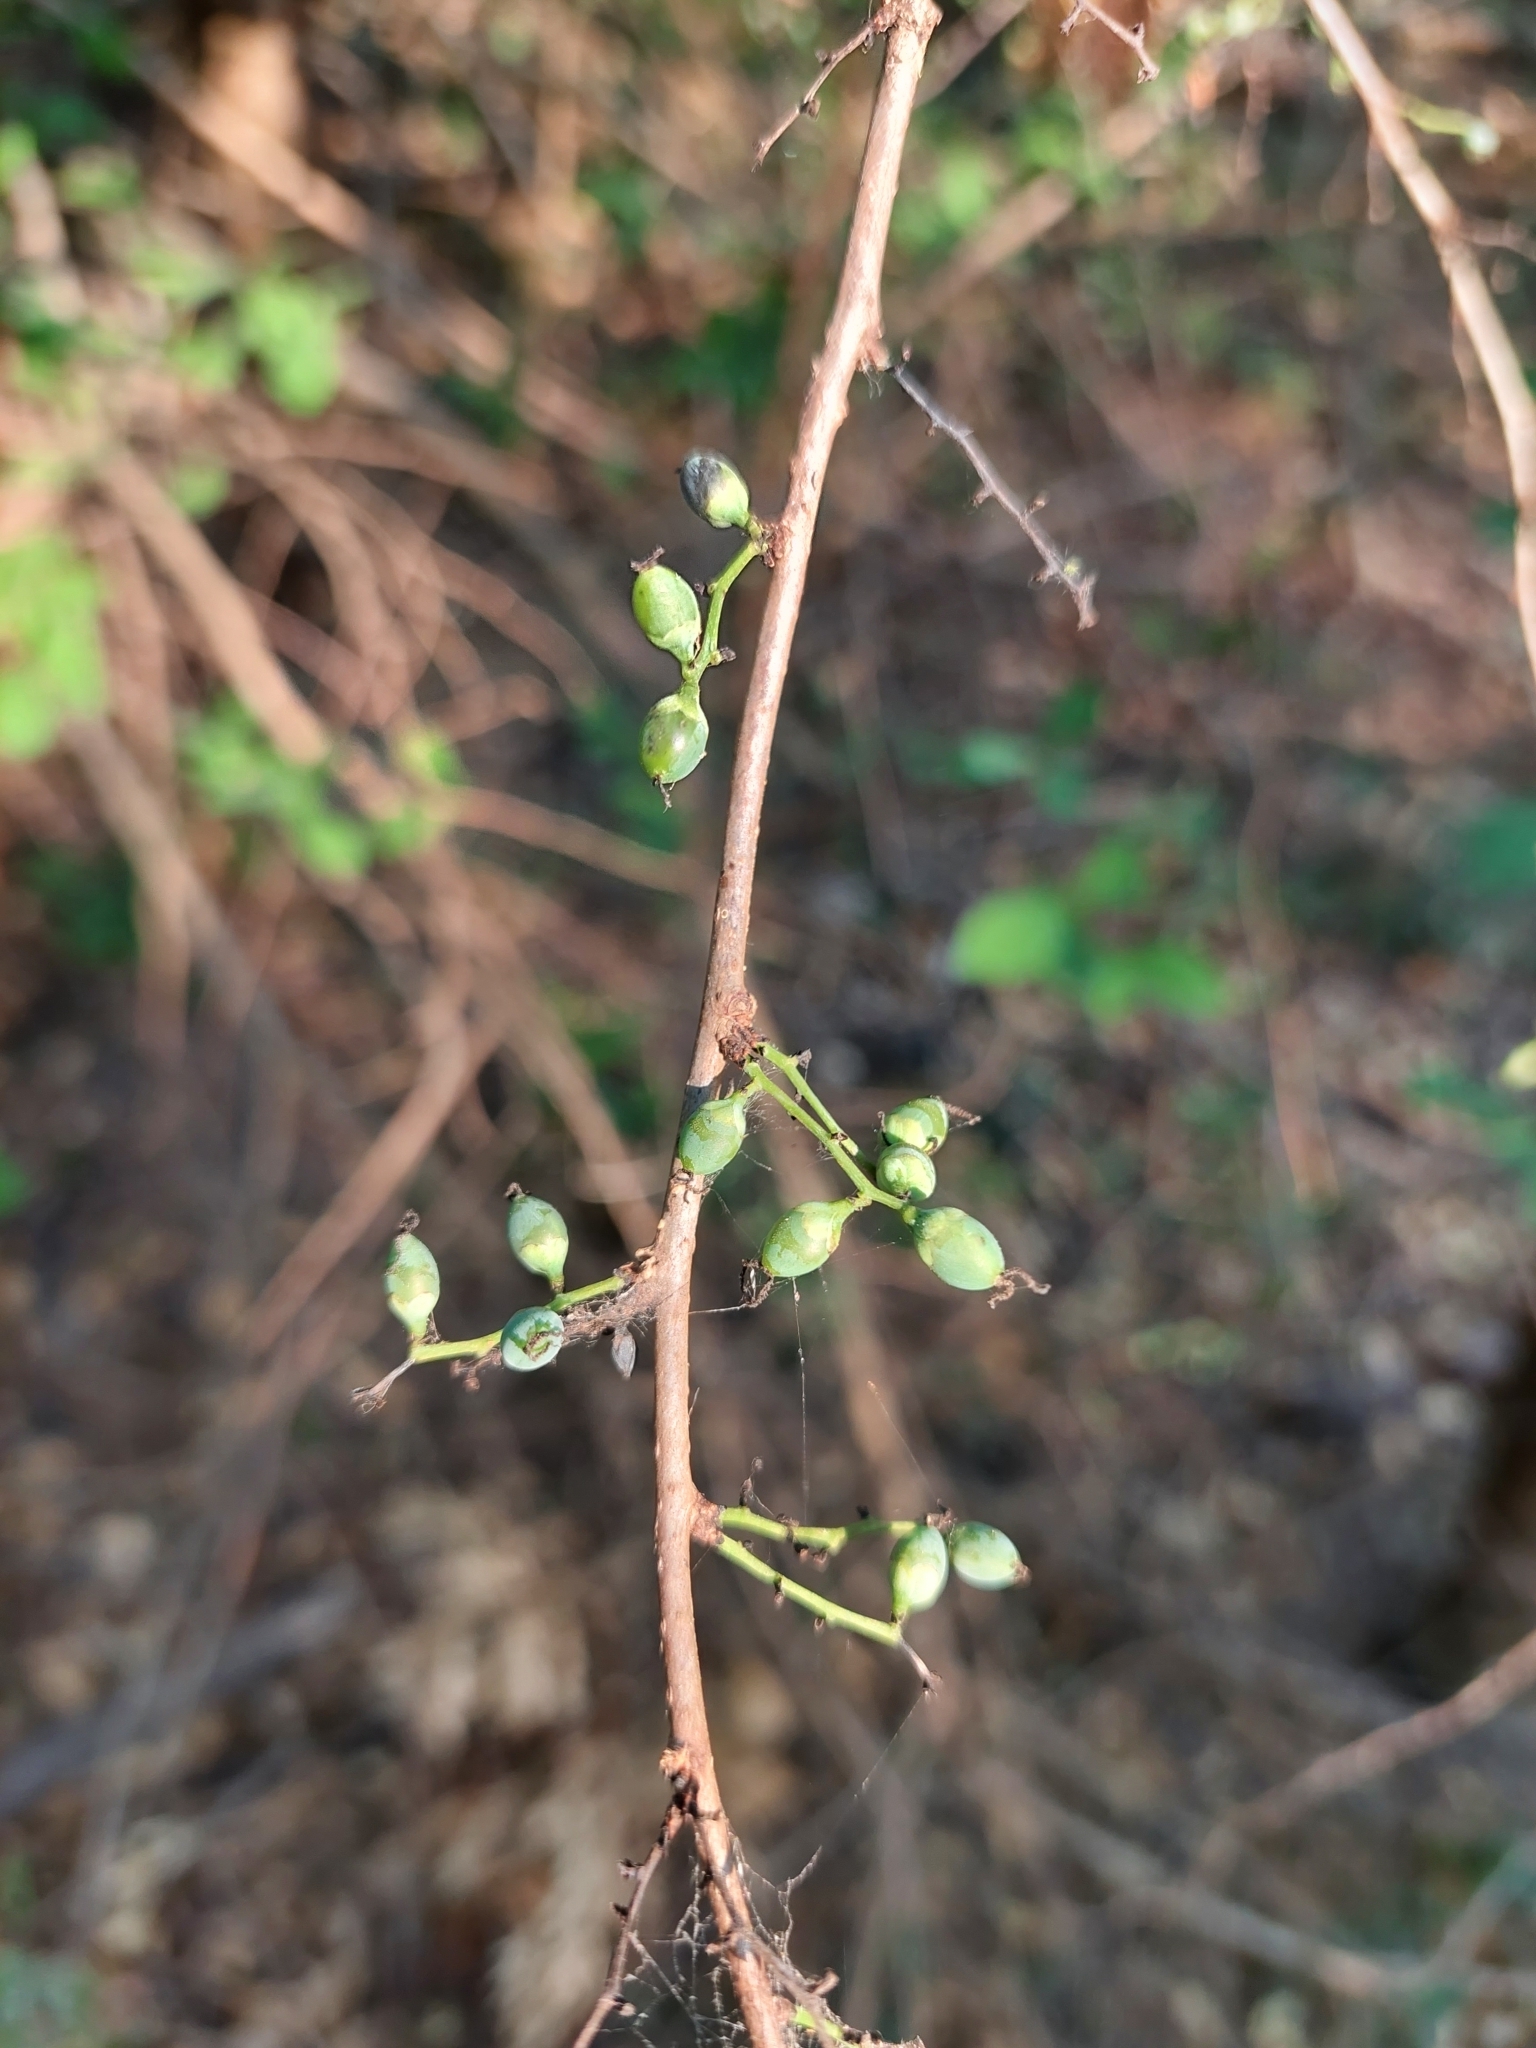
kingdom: Plantae
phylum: Tracheophyta
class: Magnoliopsida
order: Caryophyllales
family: Achatocarpaceae
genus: Achatocarpus
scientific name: Achatocarpus praecox
